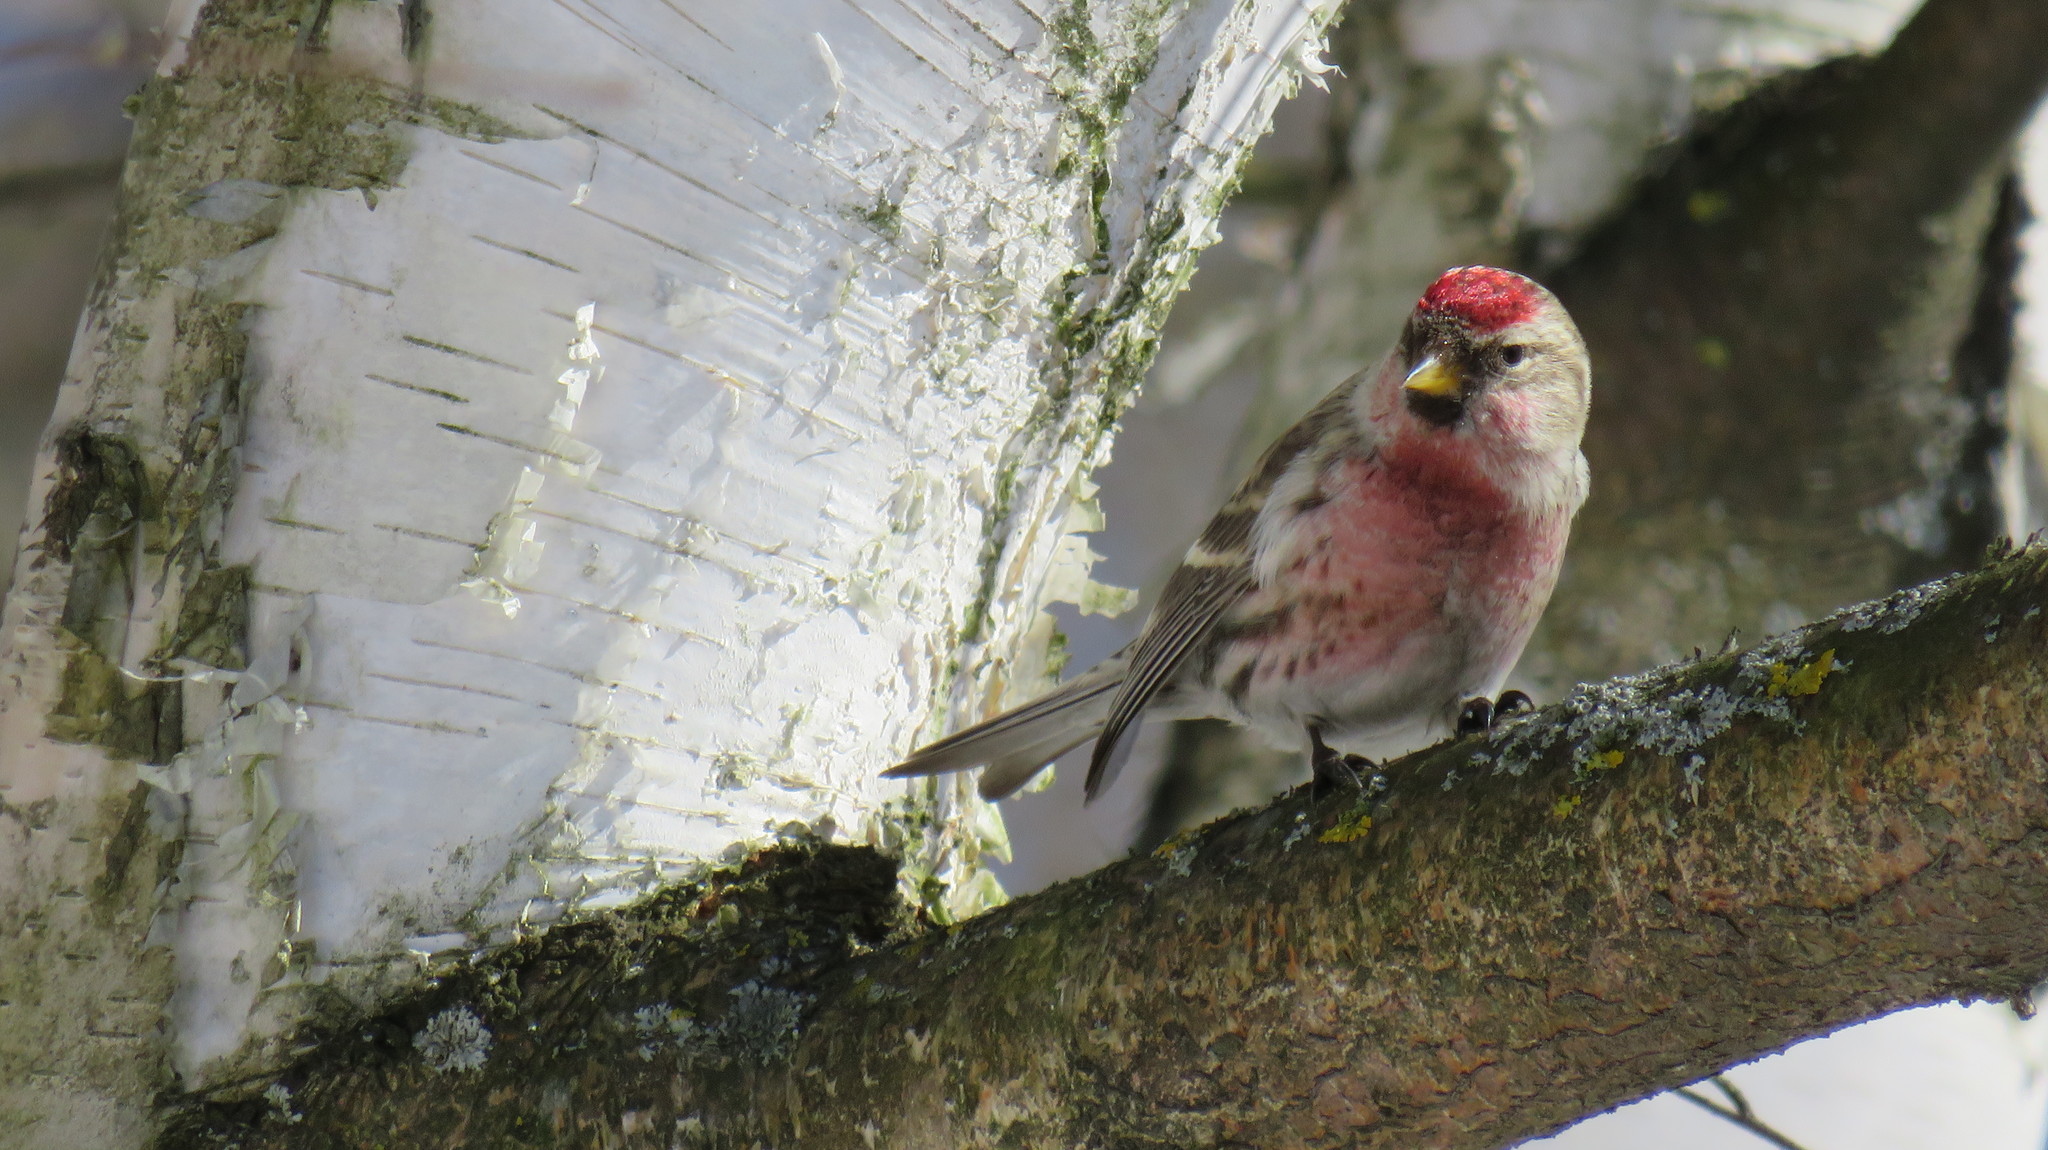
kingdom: Animalia
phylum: Chordata
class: Aves
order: Passeriformes
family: Fringillidae
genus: Acanthis
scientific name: Acanthis flammea
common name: Common redpoll
